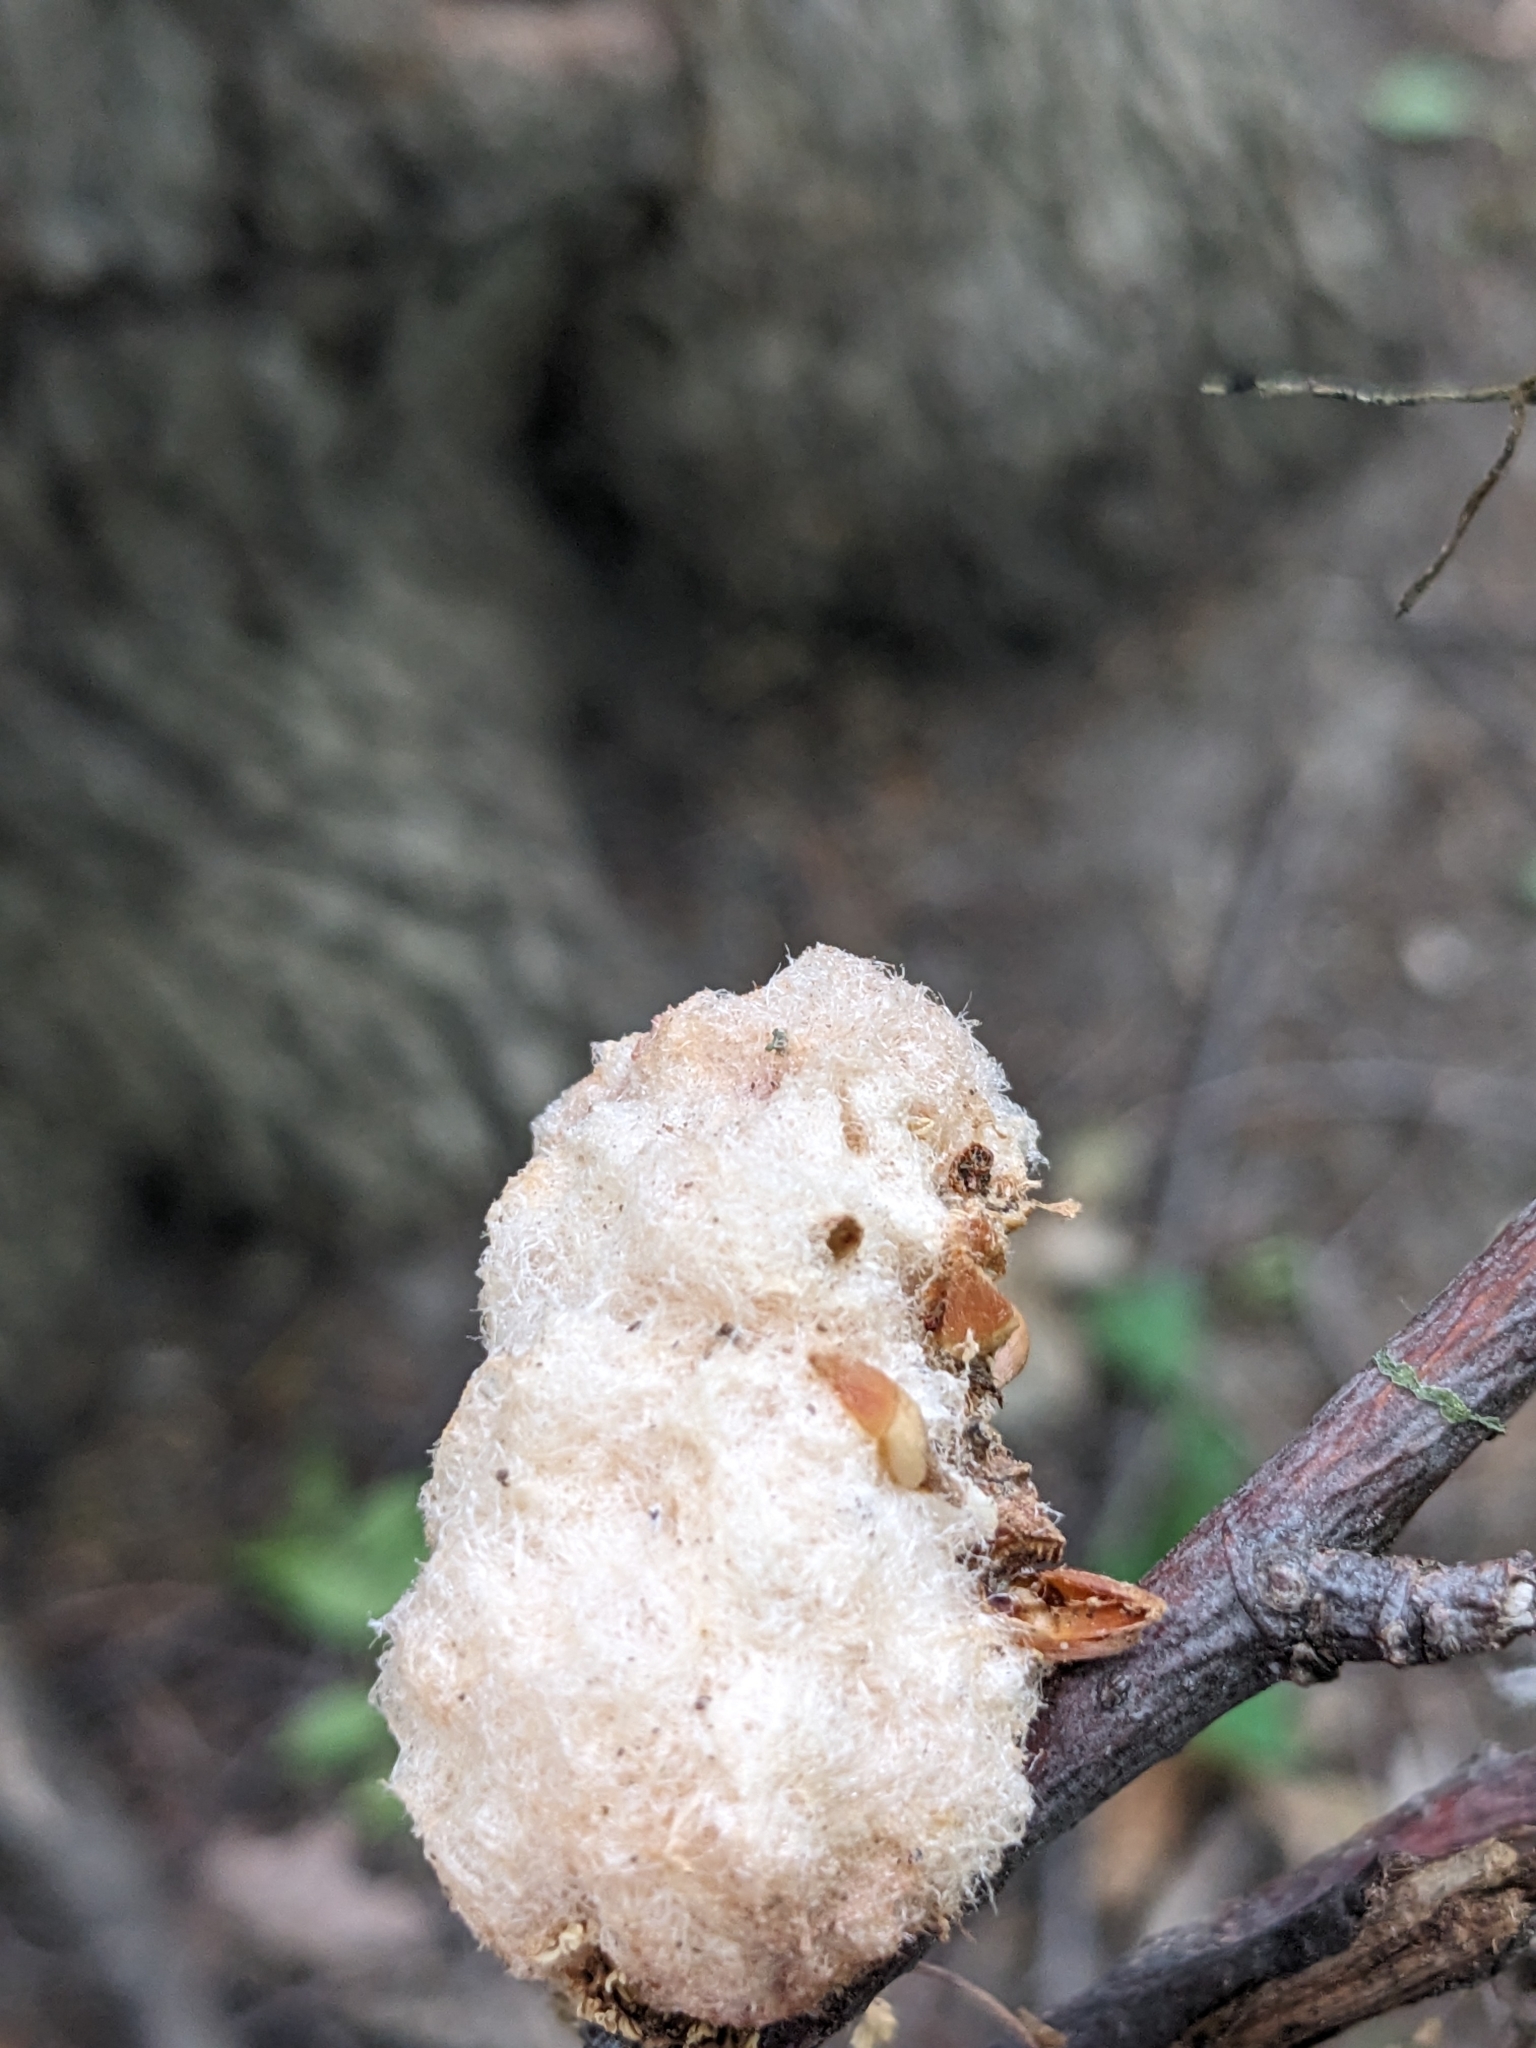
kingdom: Animalia
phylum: Arthropoda
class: Insecta
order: Hymenoptera
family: Cynipidae
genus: Callirhytis
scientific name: Callirhytis
